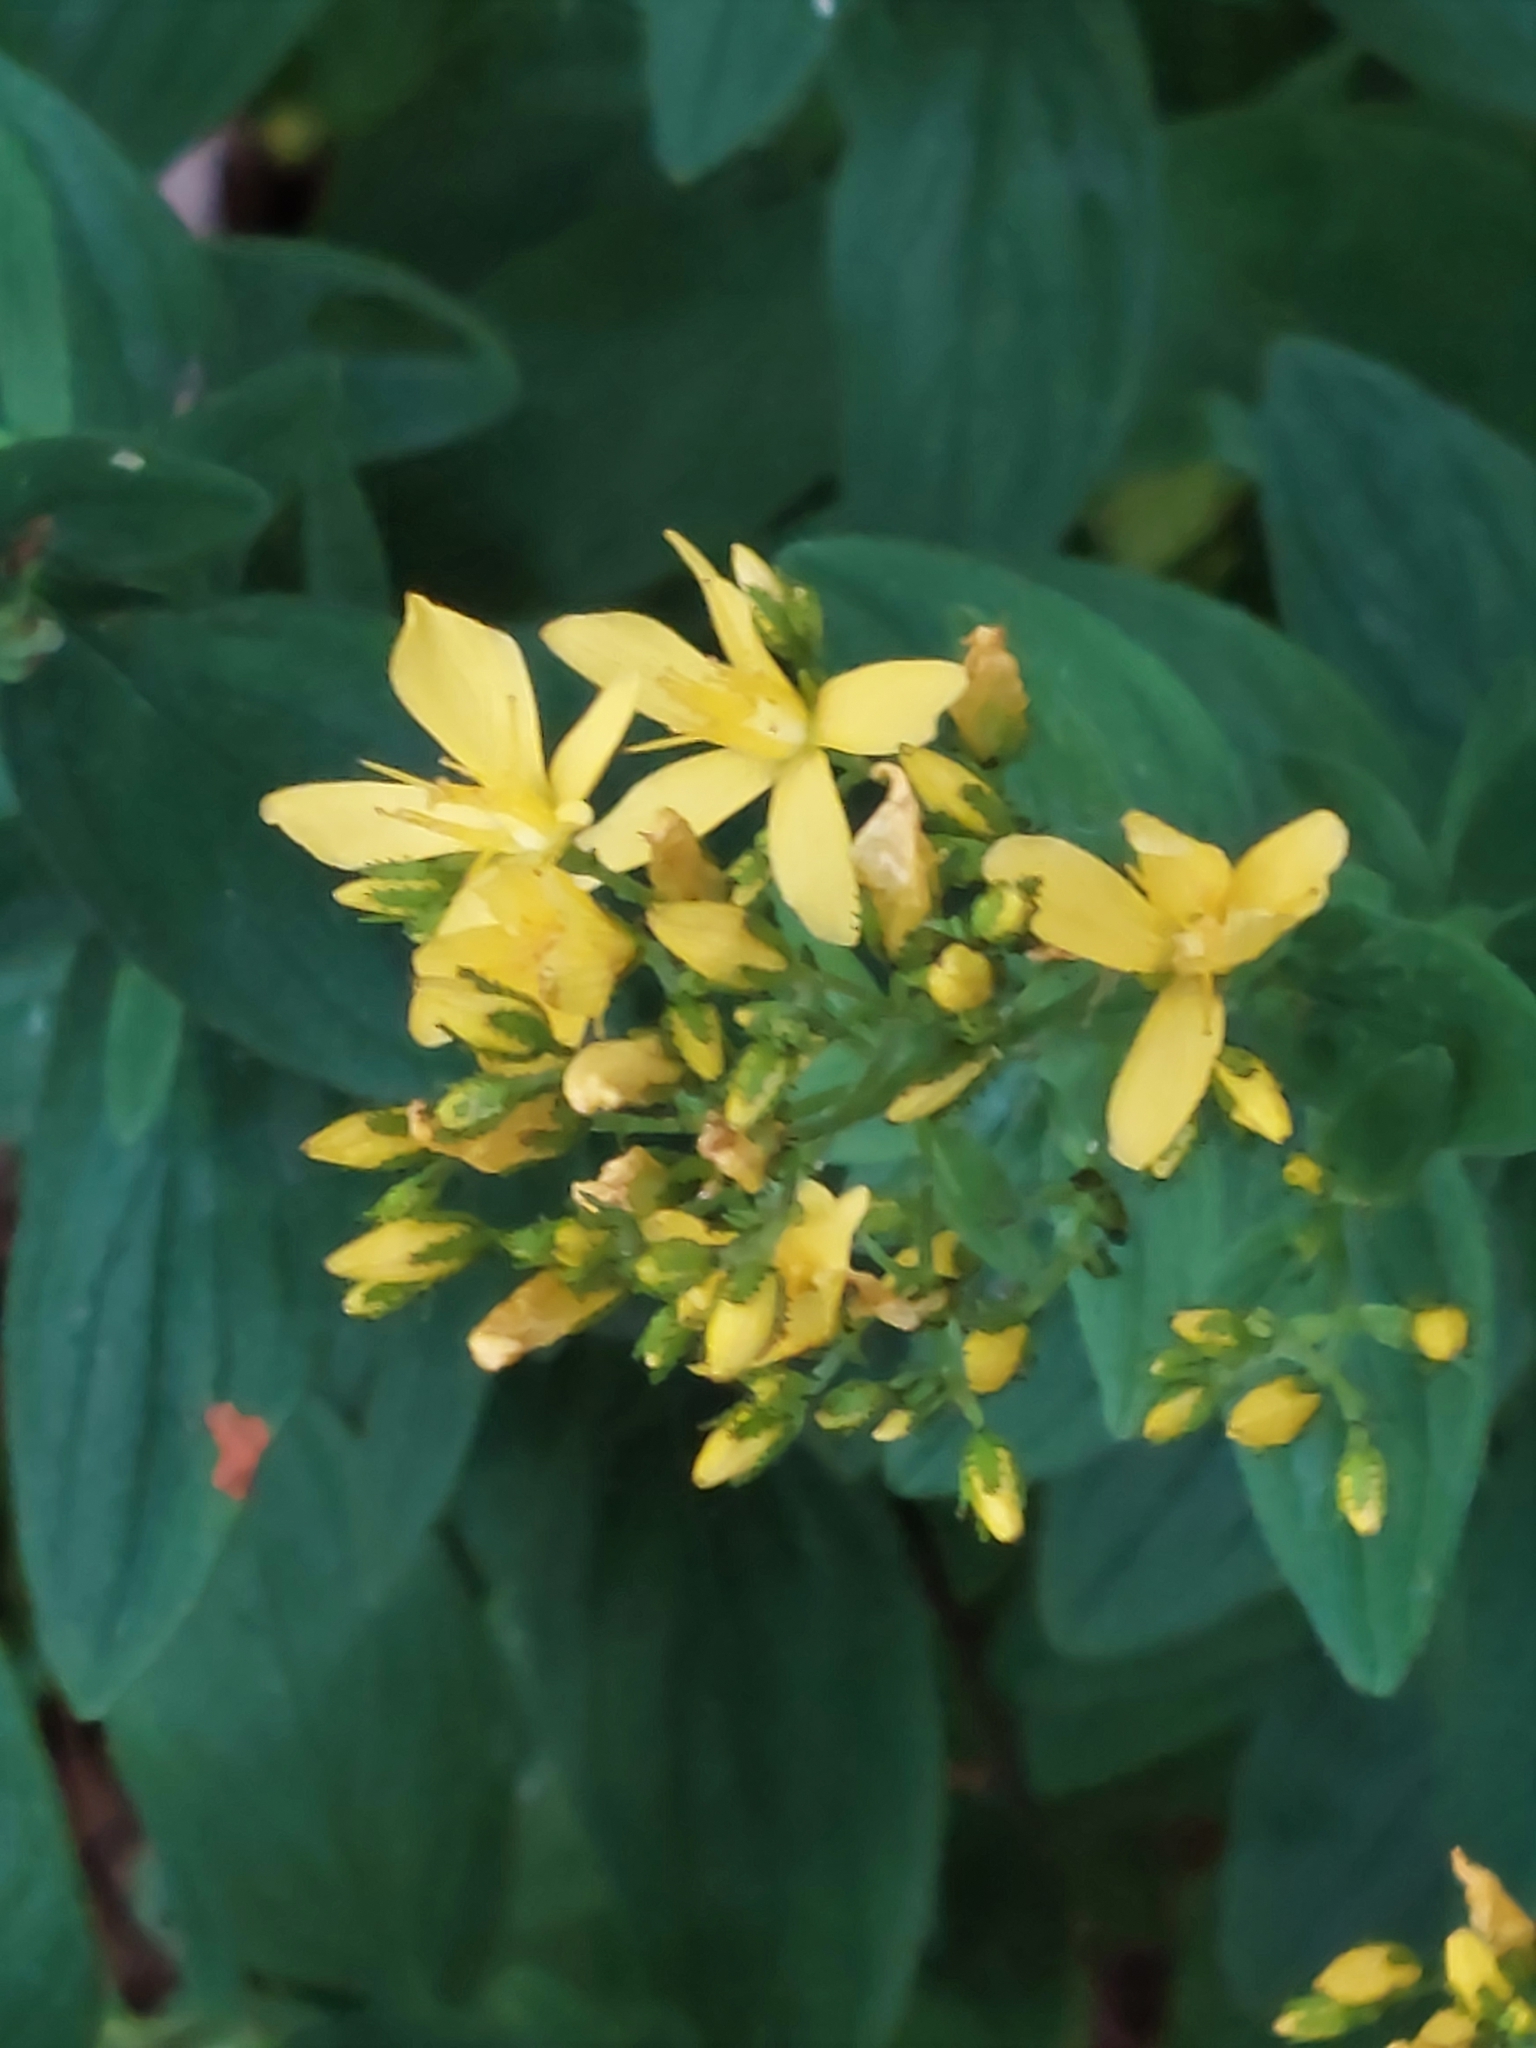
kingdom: Plantae
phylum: Tracheophyta
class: Magnoliopsida
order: Malpighiales
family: Hypericaceae
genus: Hypericum
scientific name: Hypericum hirsutum
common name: Hairy st. john's-wort
